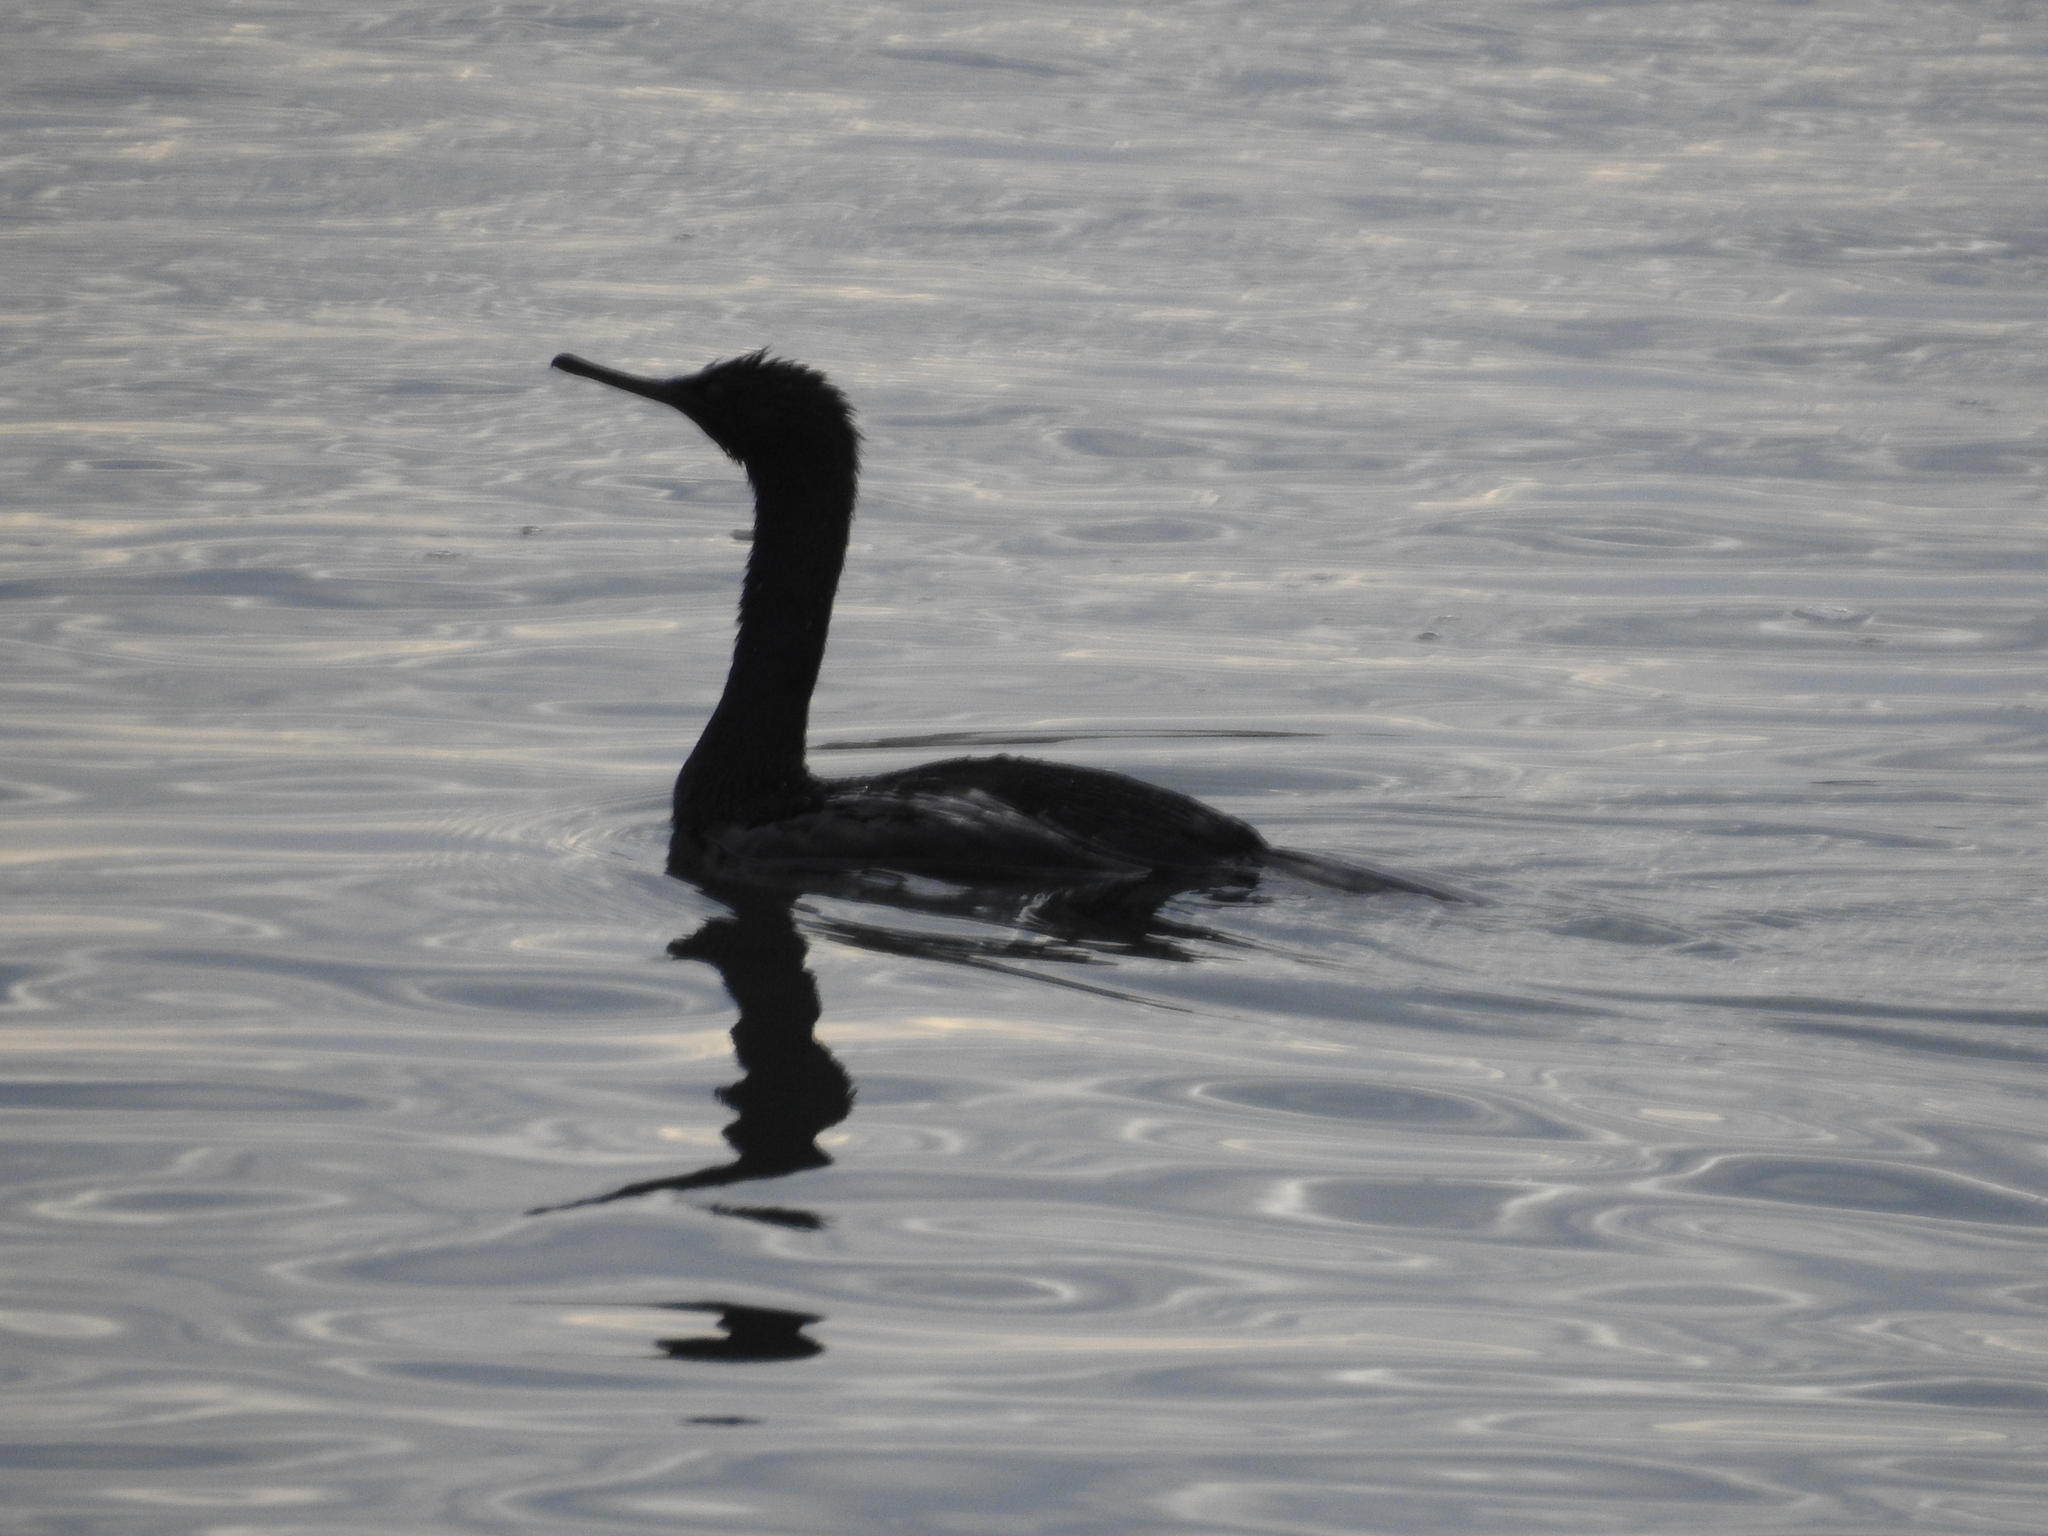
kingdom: Animalia
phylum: Chordata
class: Aves
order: Suliformes
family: Phalacrocoracidae
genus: Phalacrocorax
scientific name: Phalacrocorax pelagicus
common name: Pelagic cormorant
